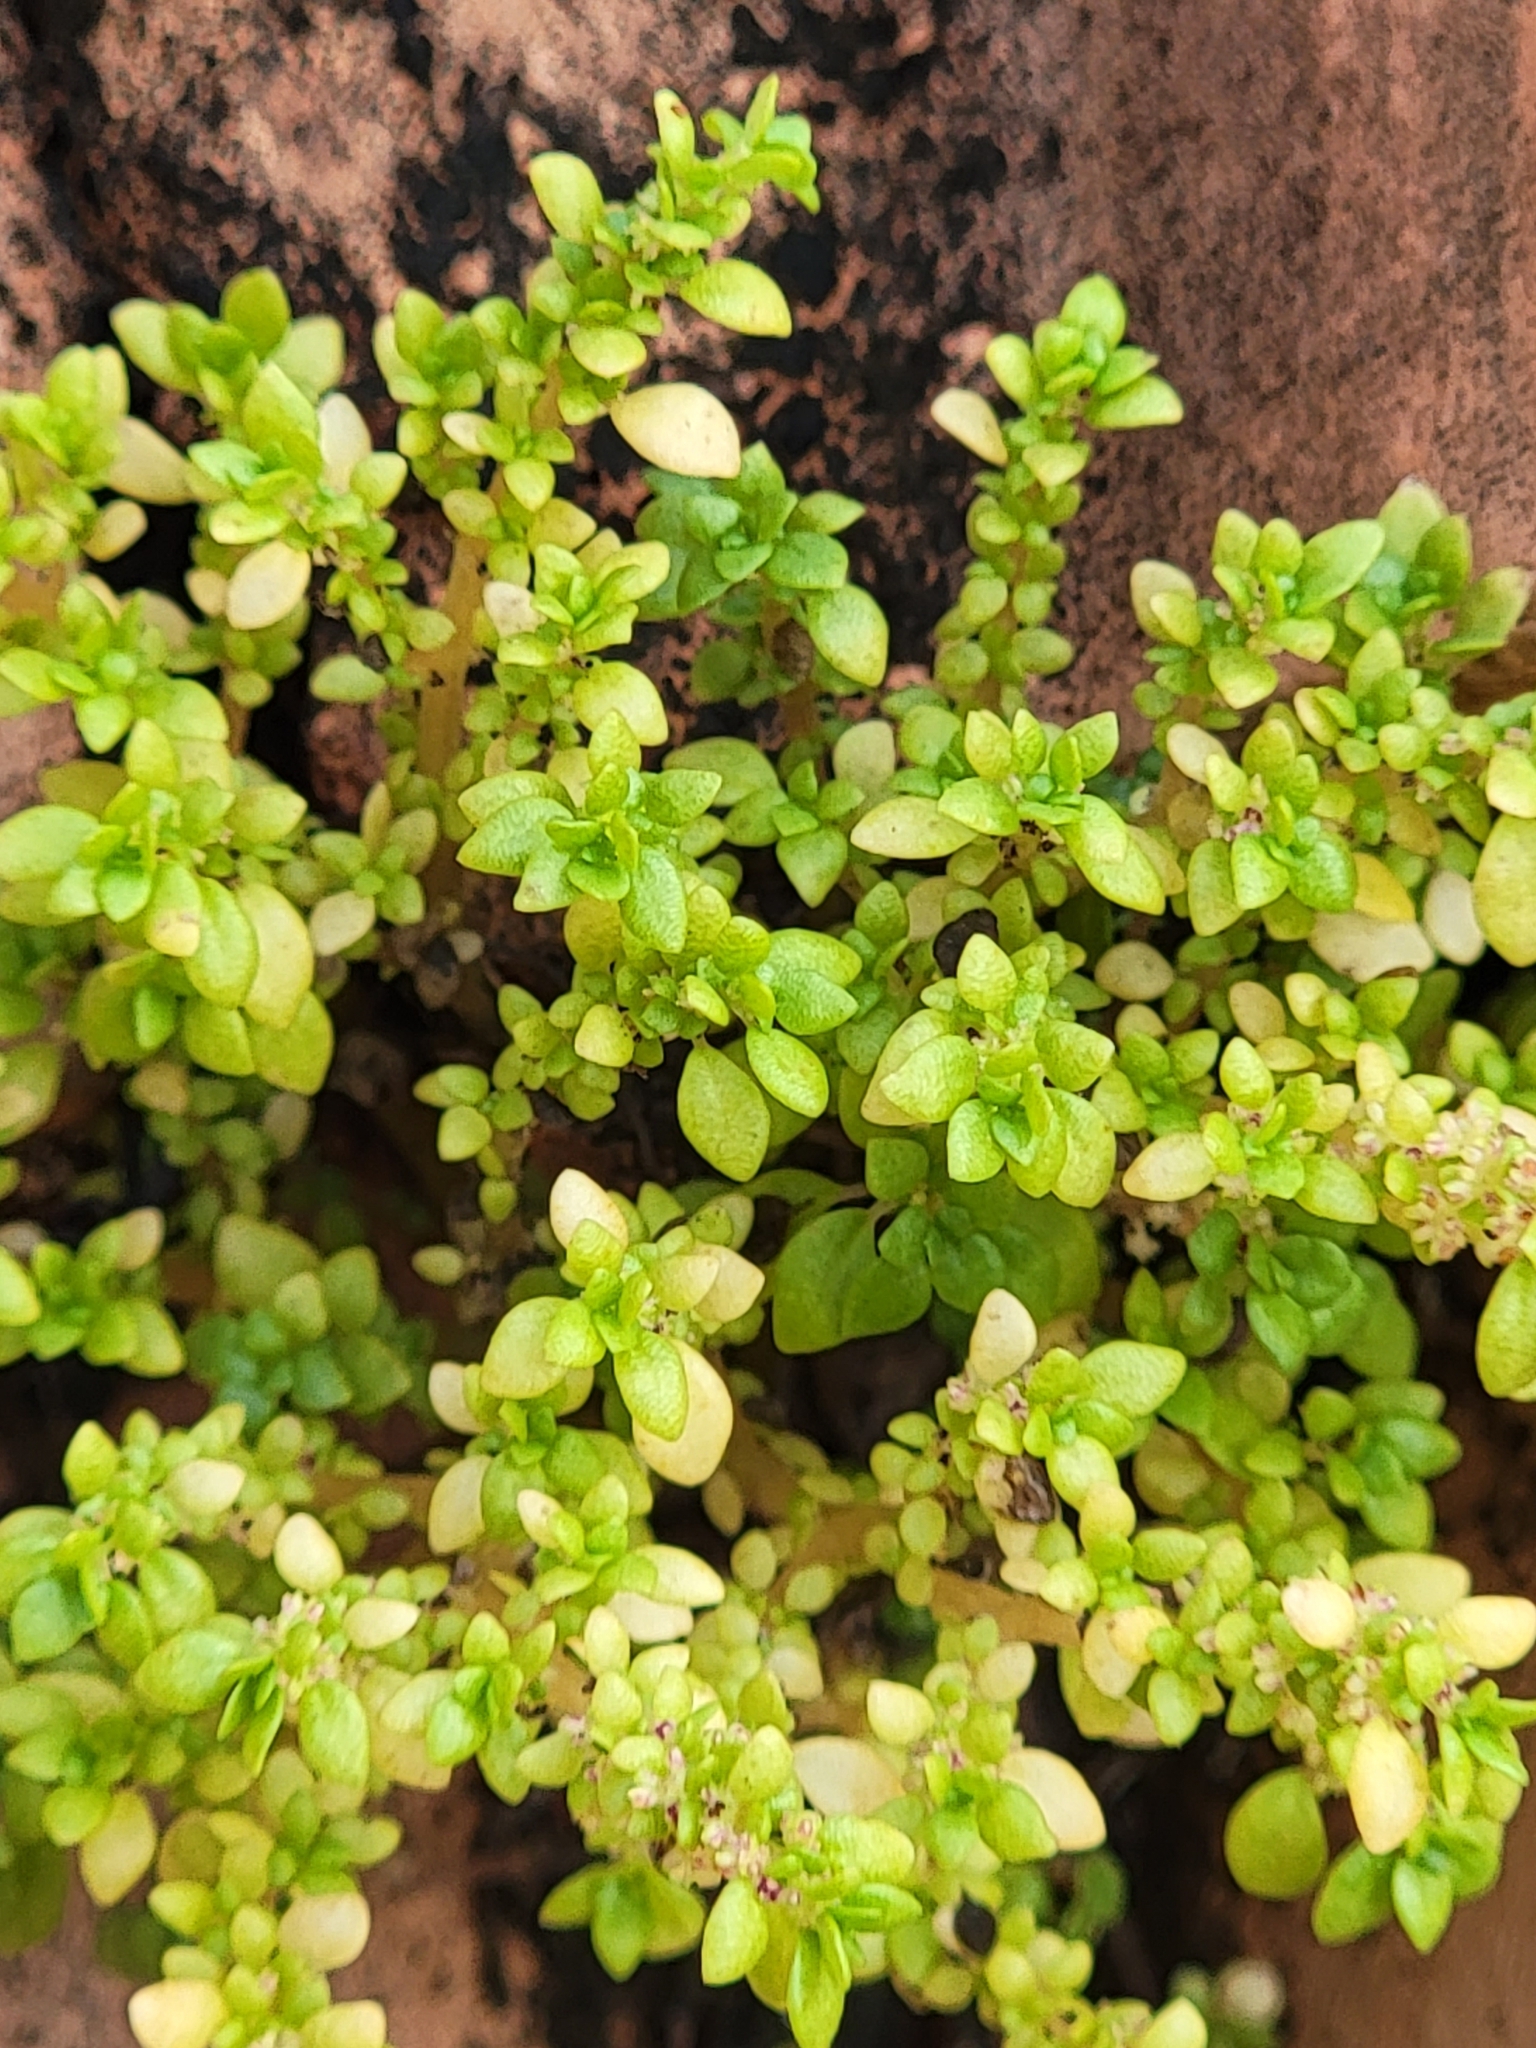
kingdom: Plantae
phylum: Tracheophyta
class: Magnoliopsida
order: Rosales
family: Urticaceae
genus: Pilea
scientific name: Pilea microphylla
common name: Artillery-plant
